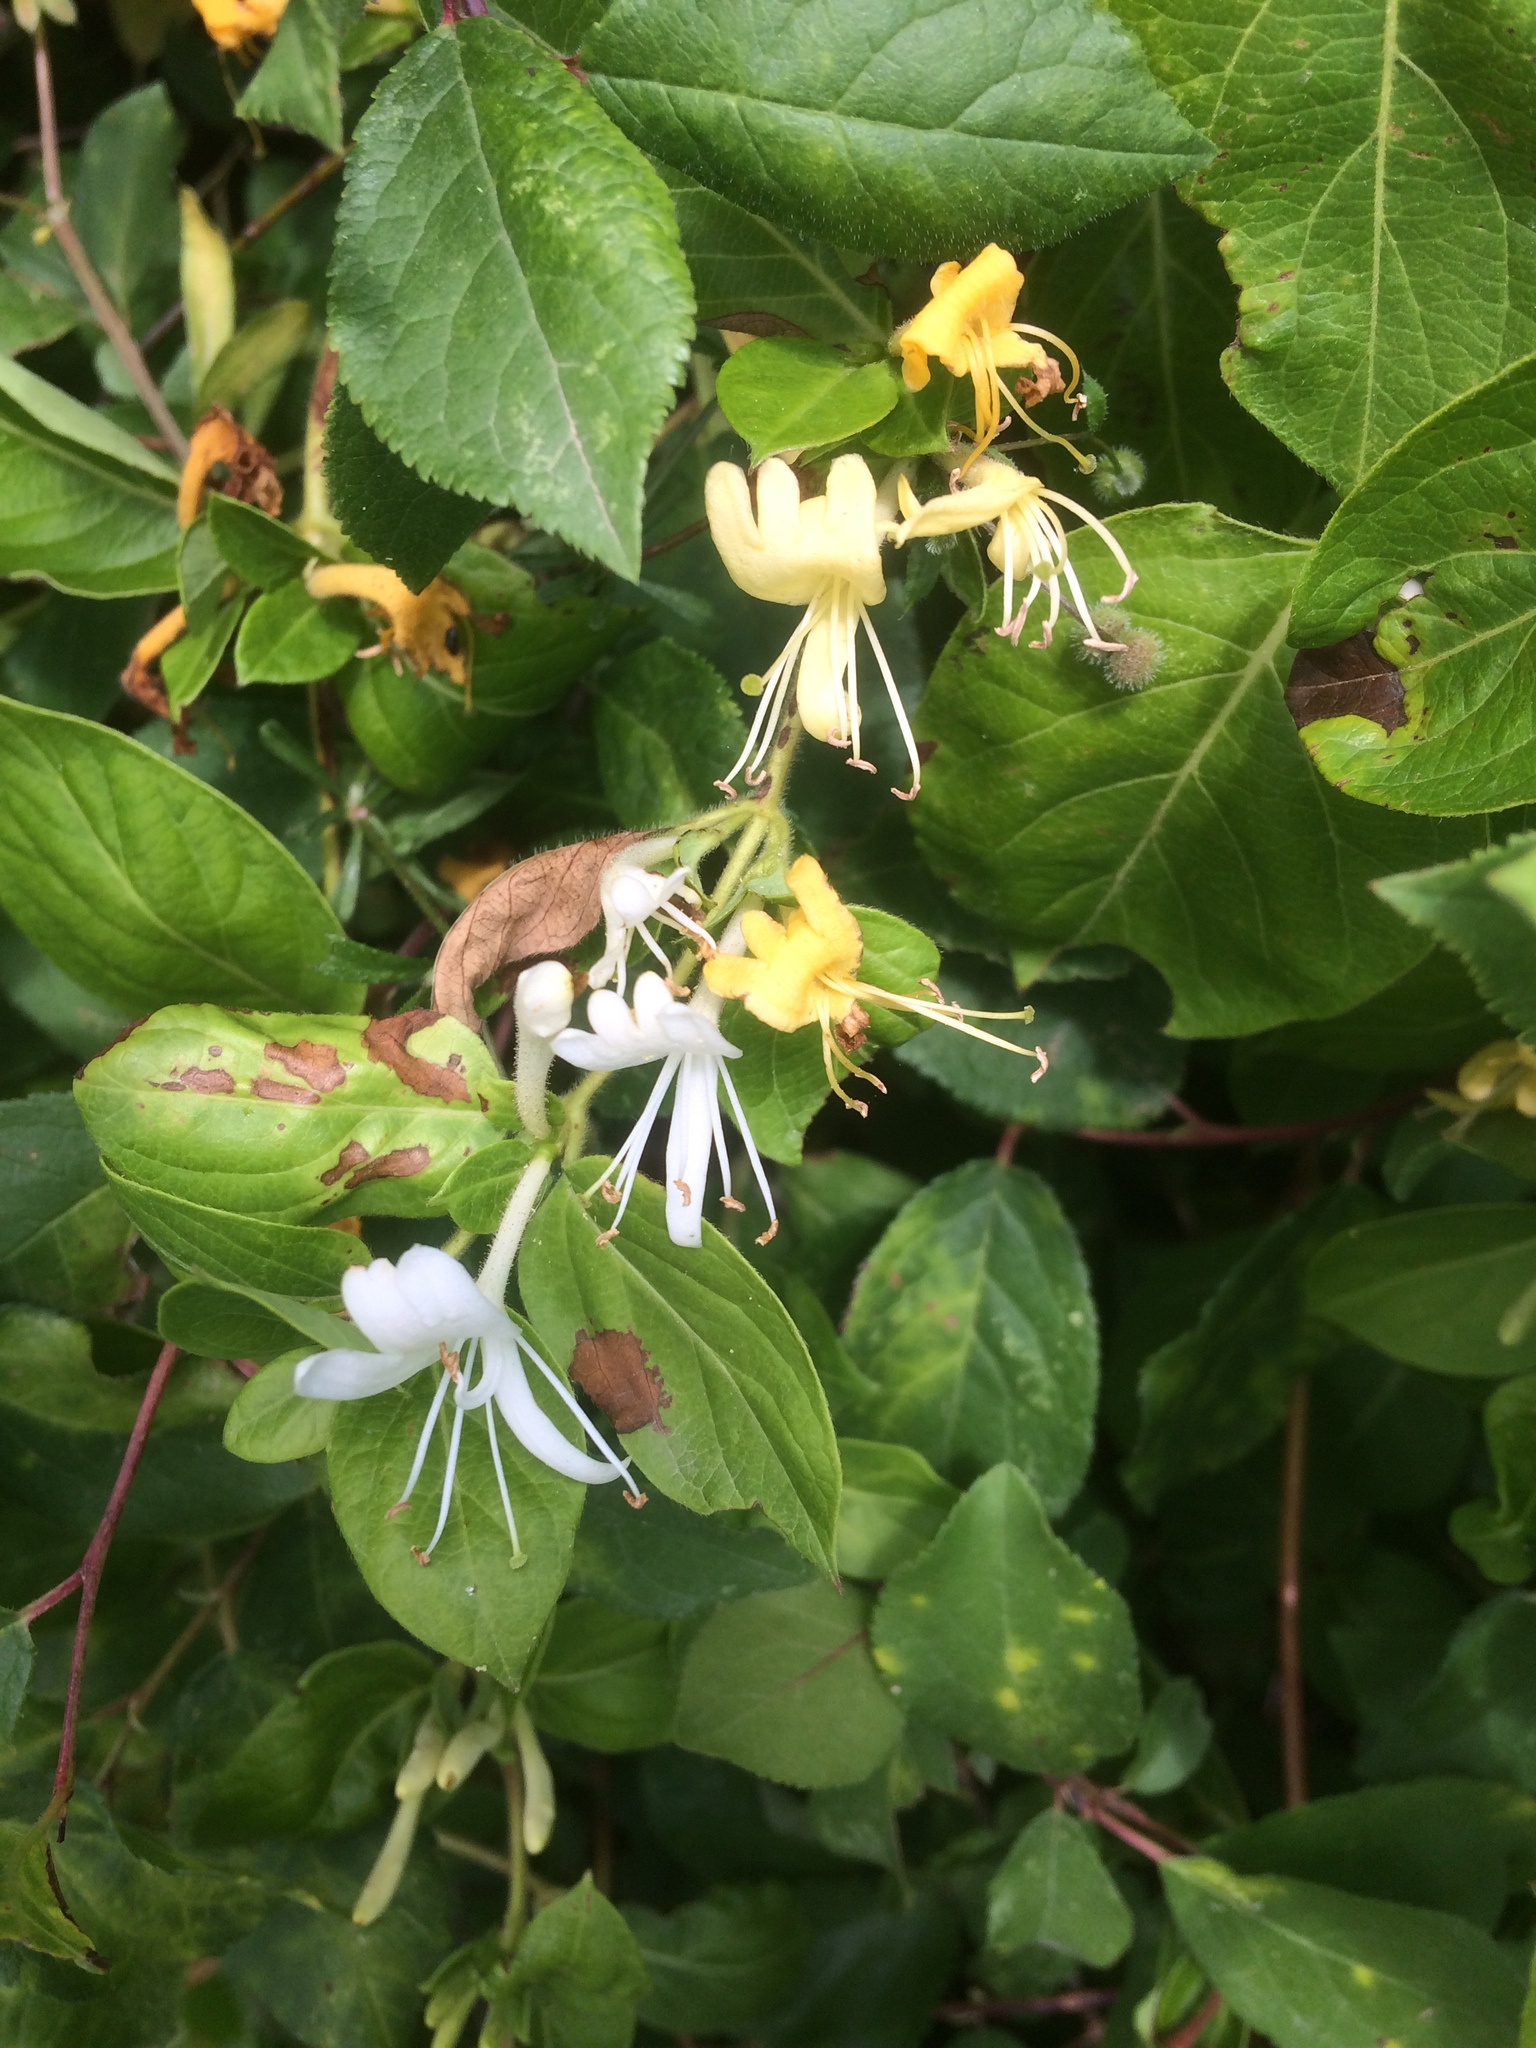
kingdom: Plantae
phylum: Tracheophyta
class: Magnoliopsida
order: Dipsacales
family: Caprifoliaceae
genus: Lonicera
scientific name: Lonicera japonica
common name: Japanese honeysuckle
